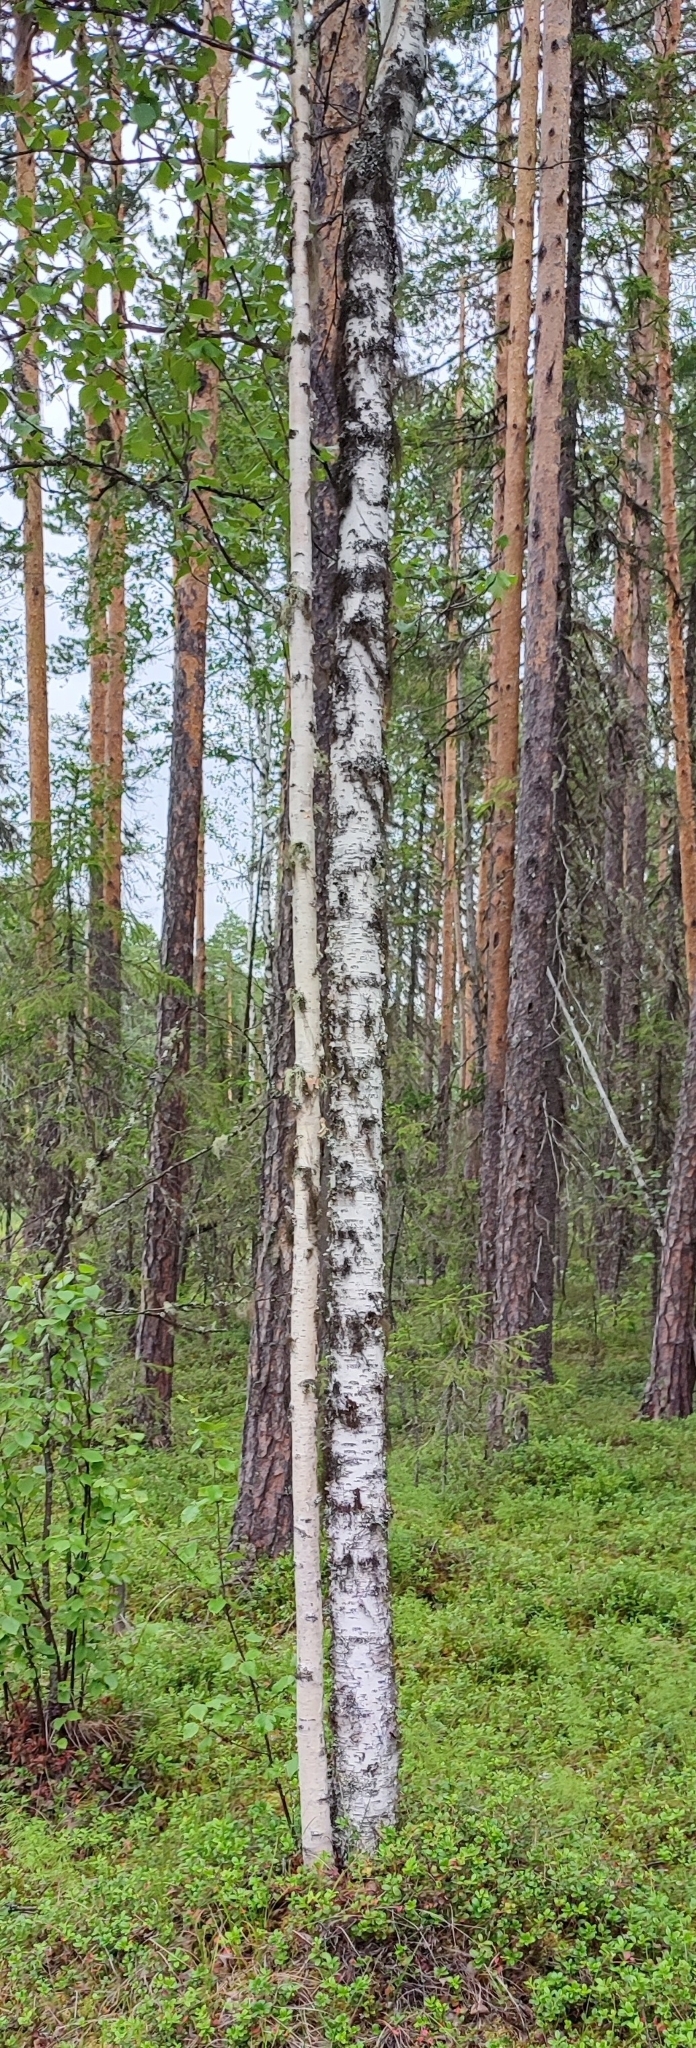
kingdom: Plantae
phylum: Tracheophyta
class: Magnoliopsida
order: Fagales
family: Betulaceae
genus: Betula
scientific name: Betula pubescens
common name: Downy birch
